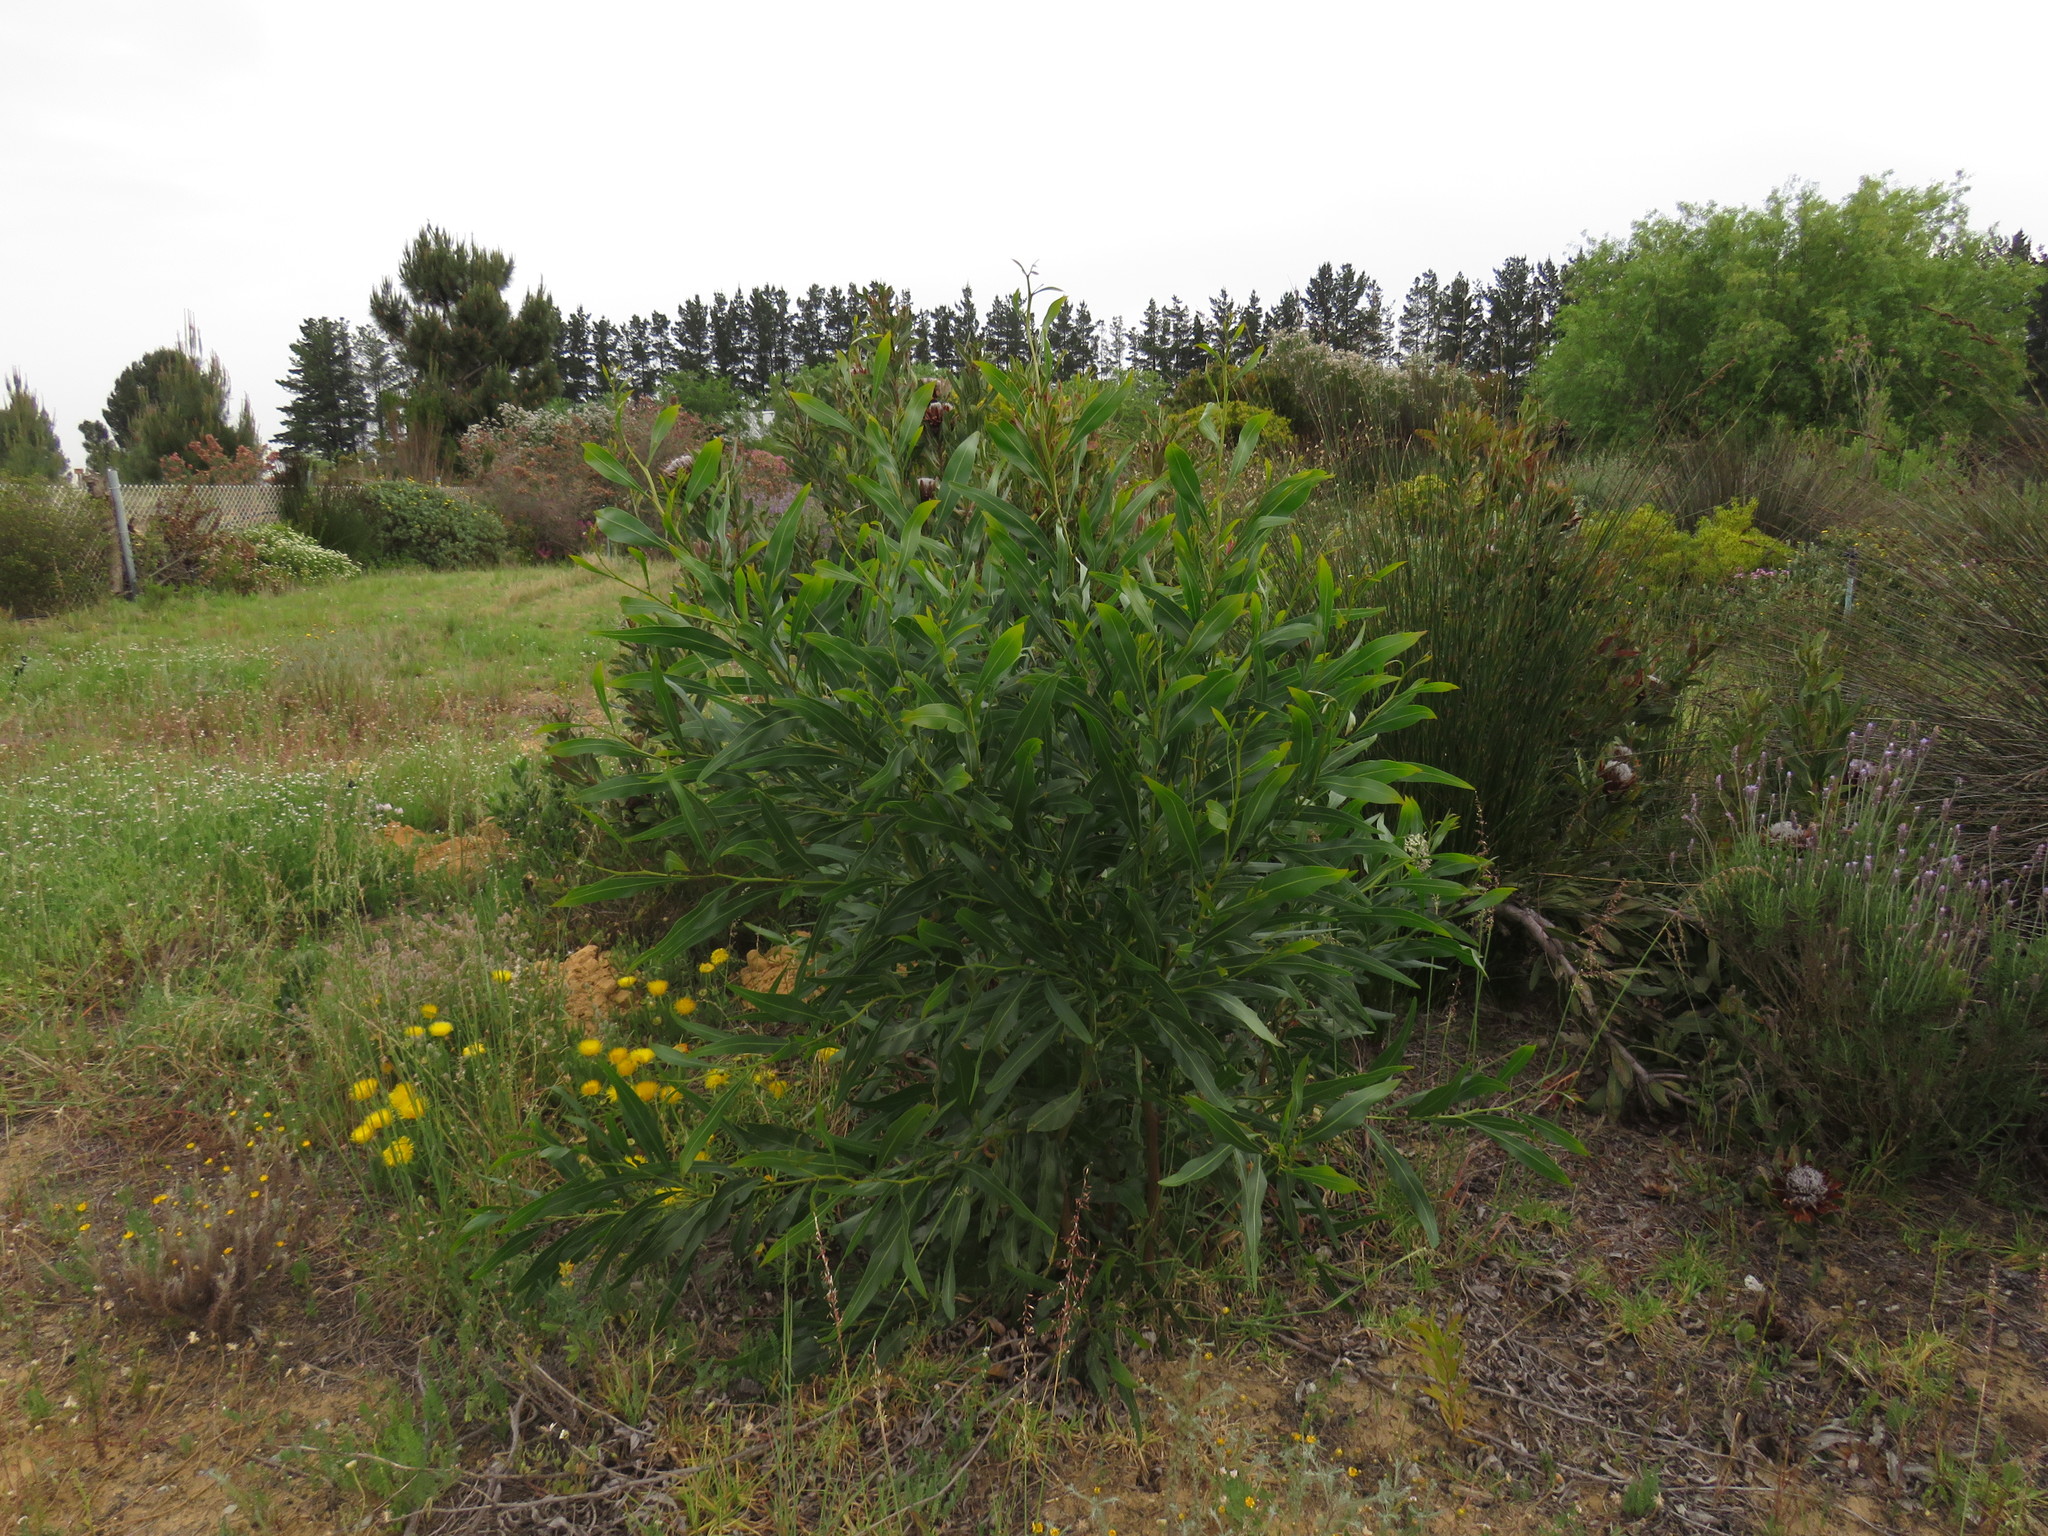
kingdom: Plantae
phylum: Tracheophyta
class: Magnoliopsida
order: Fabales
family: Fabaceae
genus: Acacia
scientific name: Acacia saligna
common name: Orange wattle
